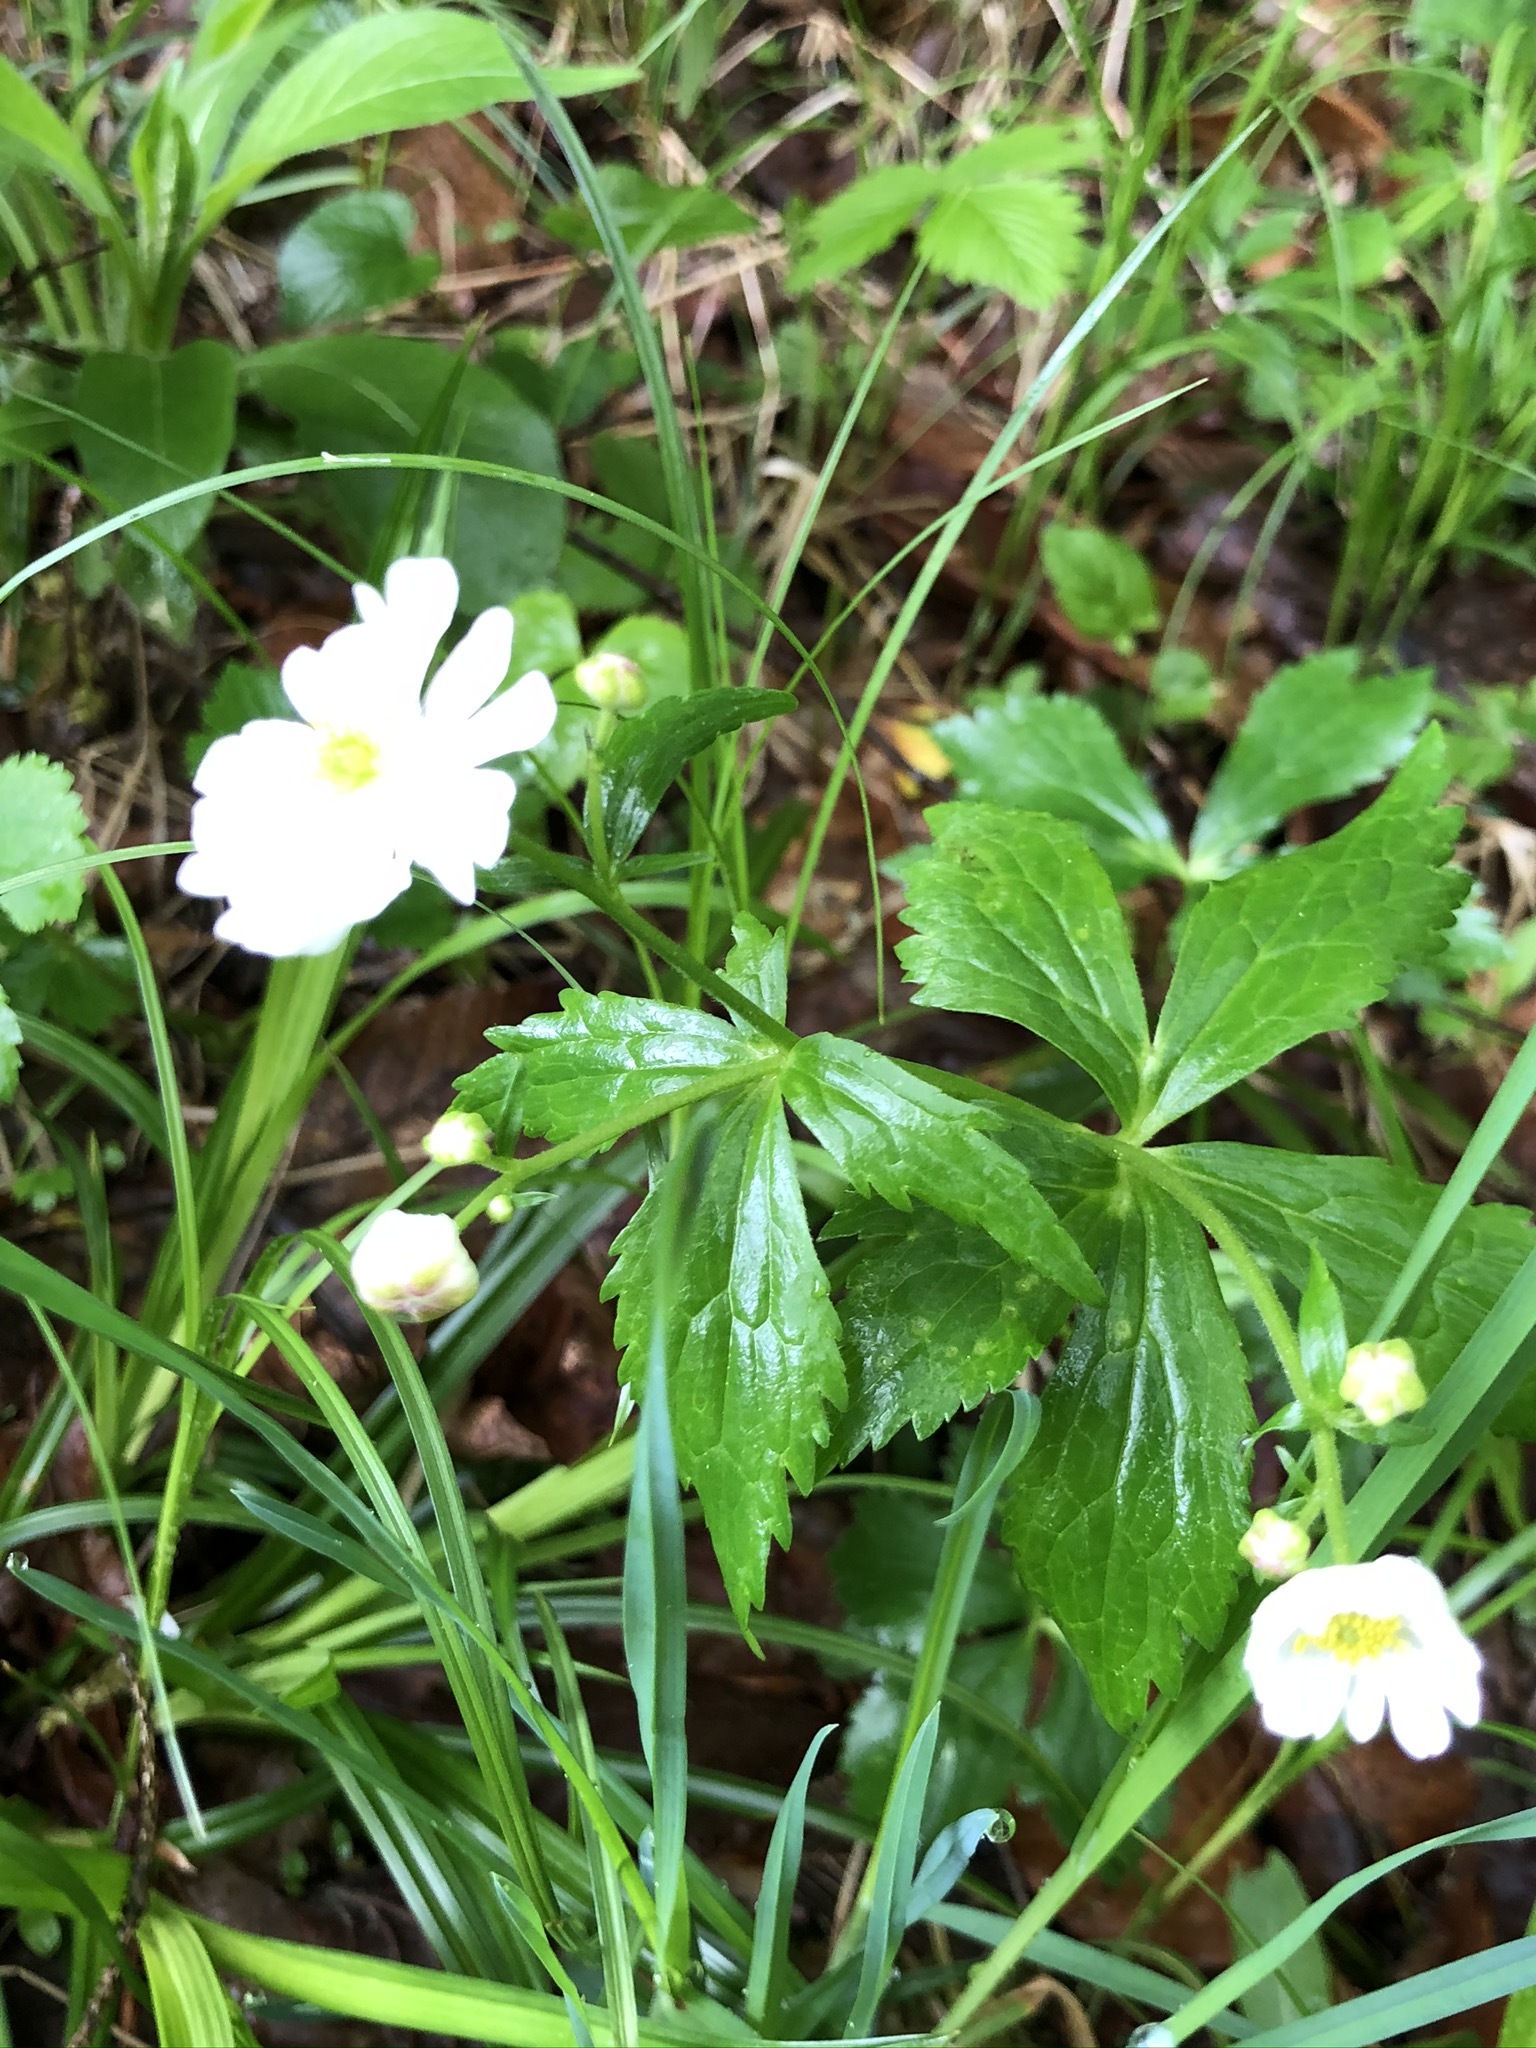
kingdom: Plantae
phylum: Tracheophyta
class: Magnoliopsida
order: Ranunculales
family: Ranunculaceae
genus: Ranunculus
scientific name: Ranunculus aconitifolius
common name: Aconite-leaved buttercup
